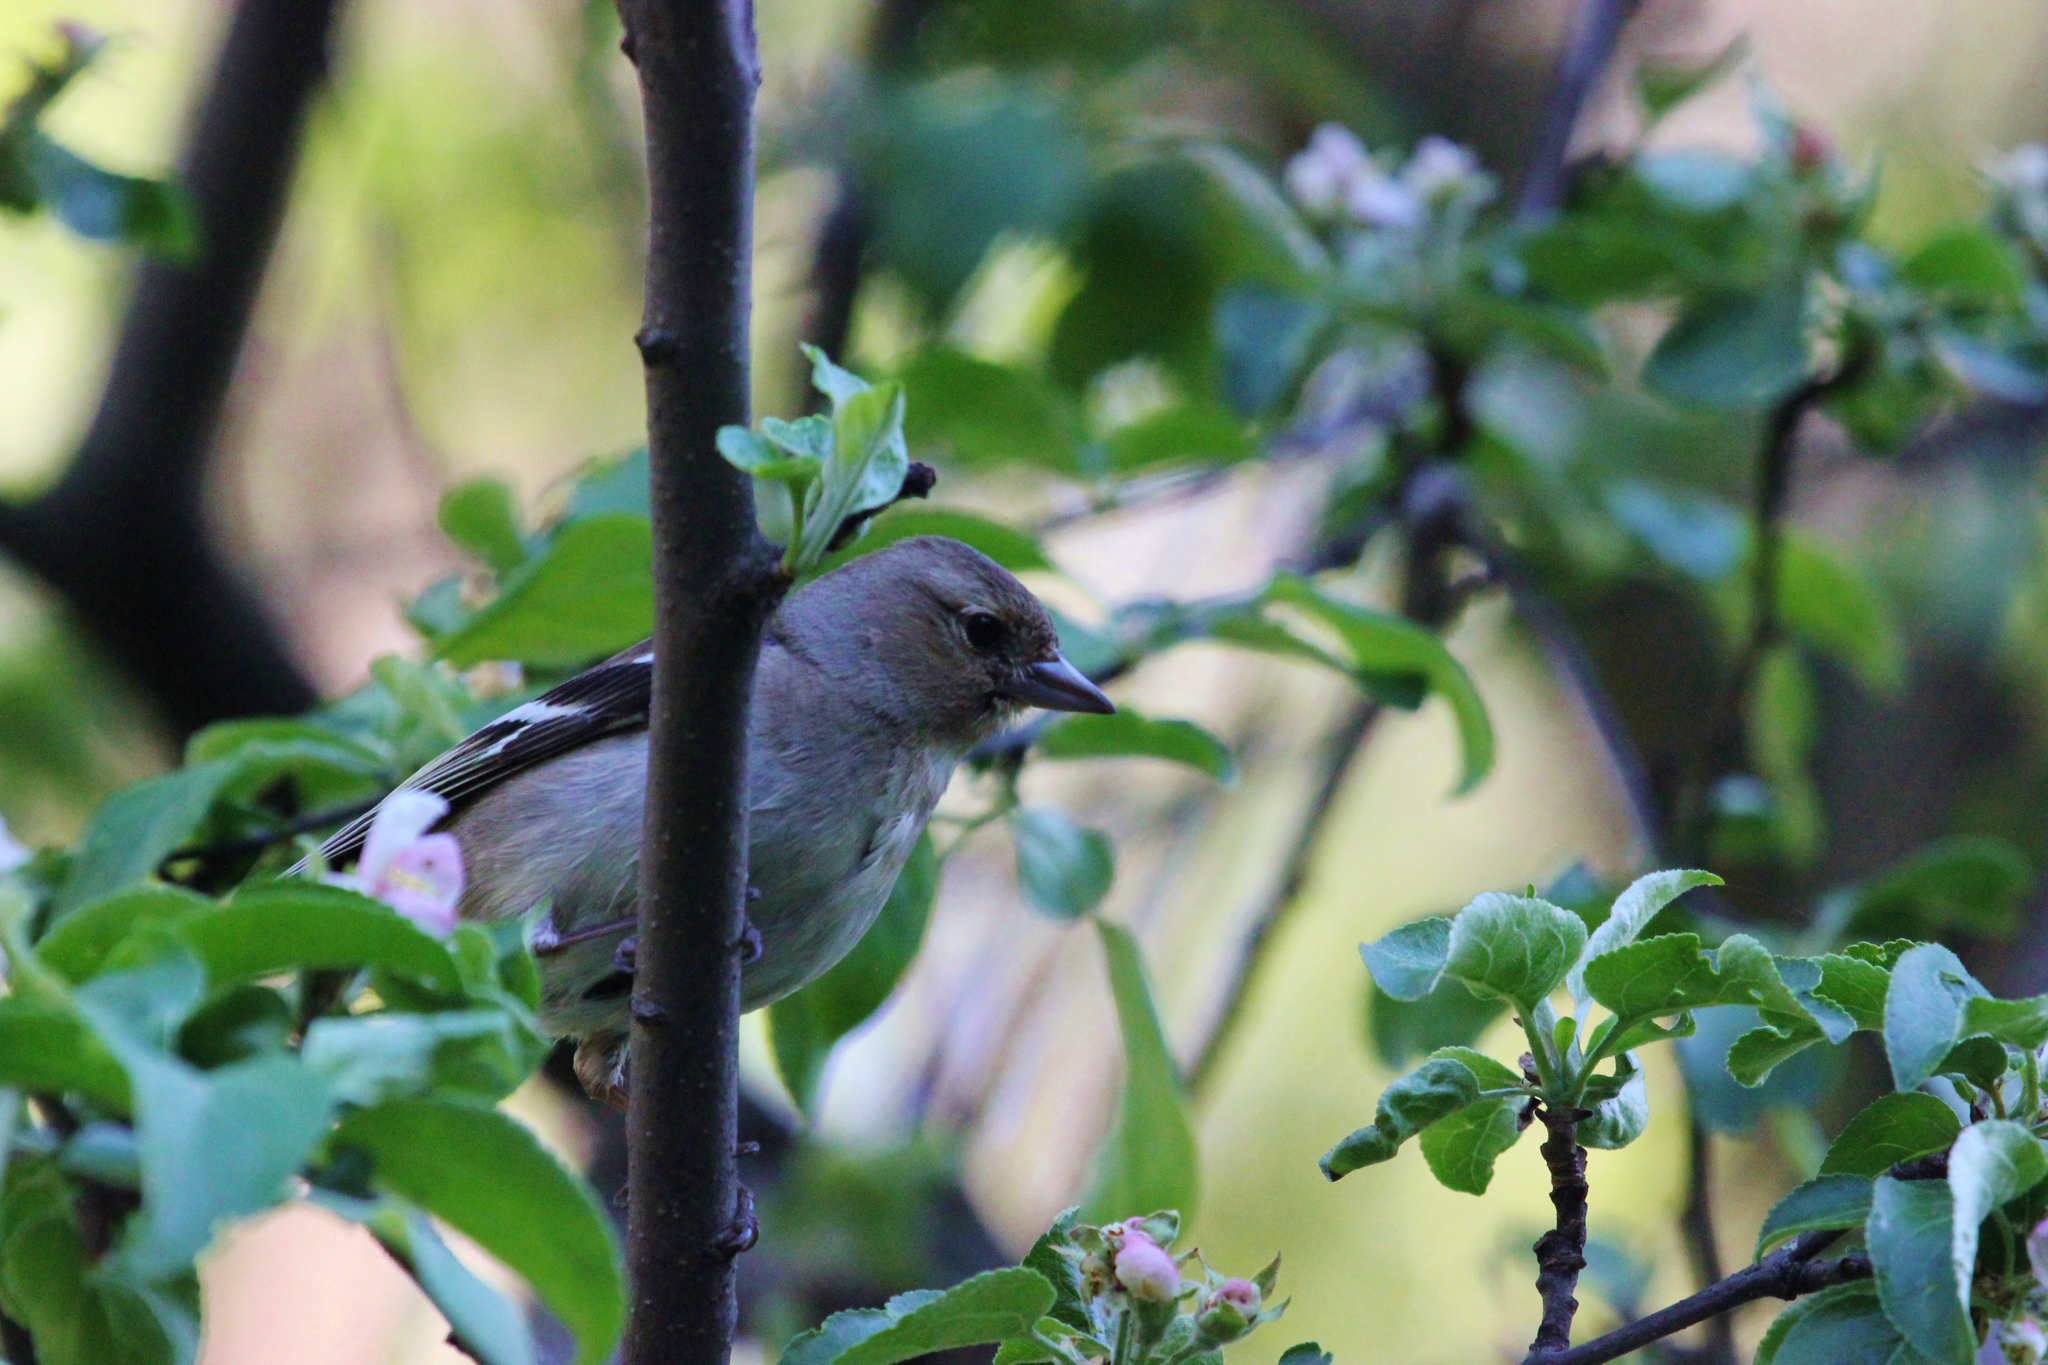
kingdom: Animalia
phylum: Chordata
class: Aves
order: Passeriformes
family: Fringillidae
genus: Fringilla
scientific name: Fringilla coelebs
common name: Common chaffinch
